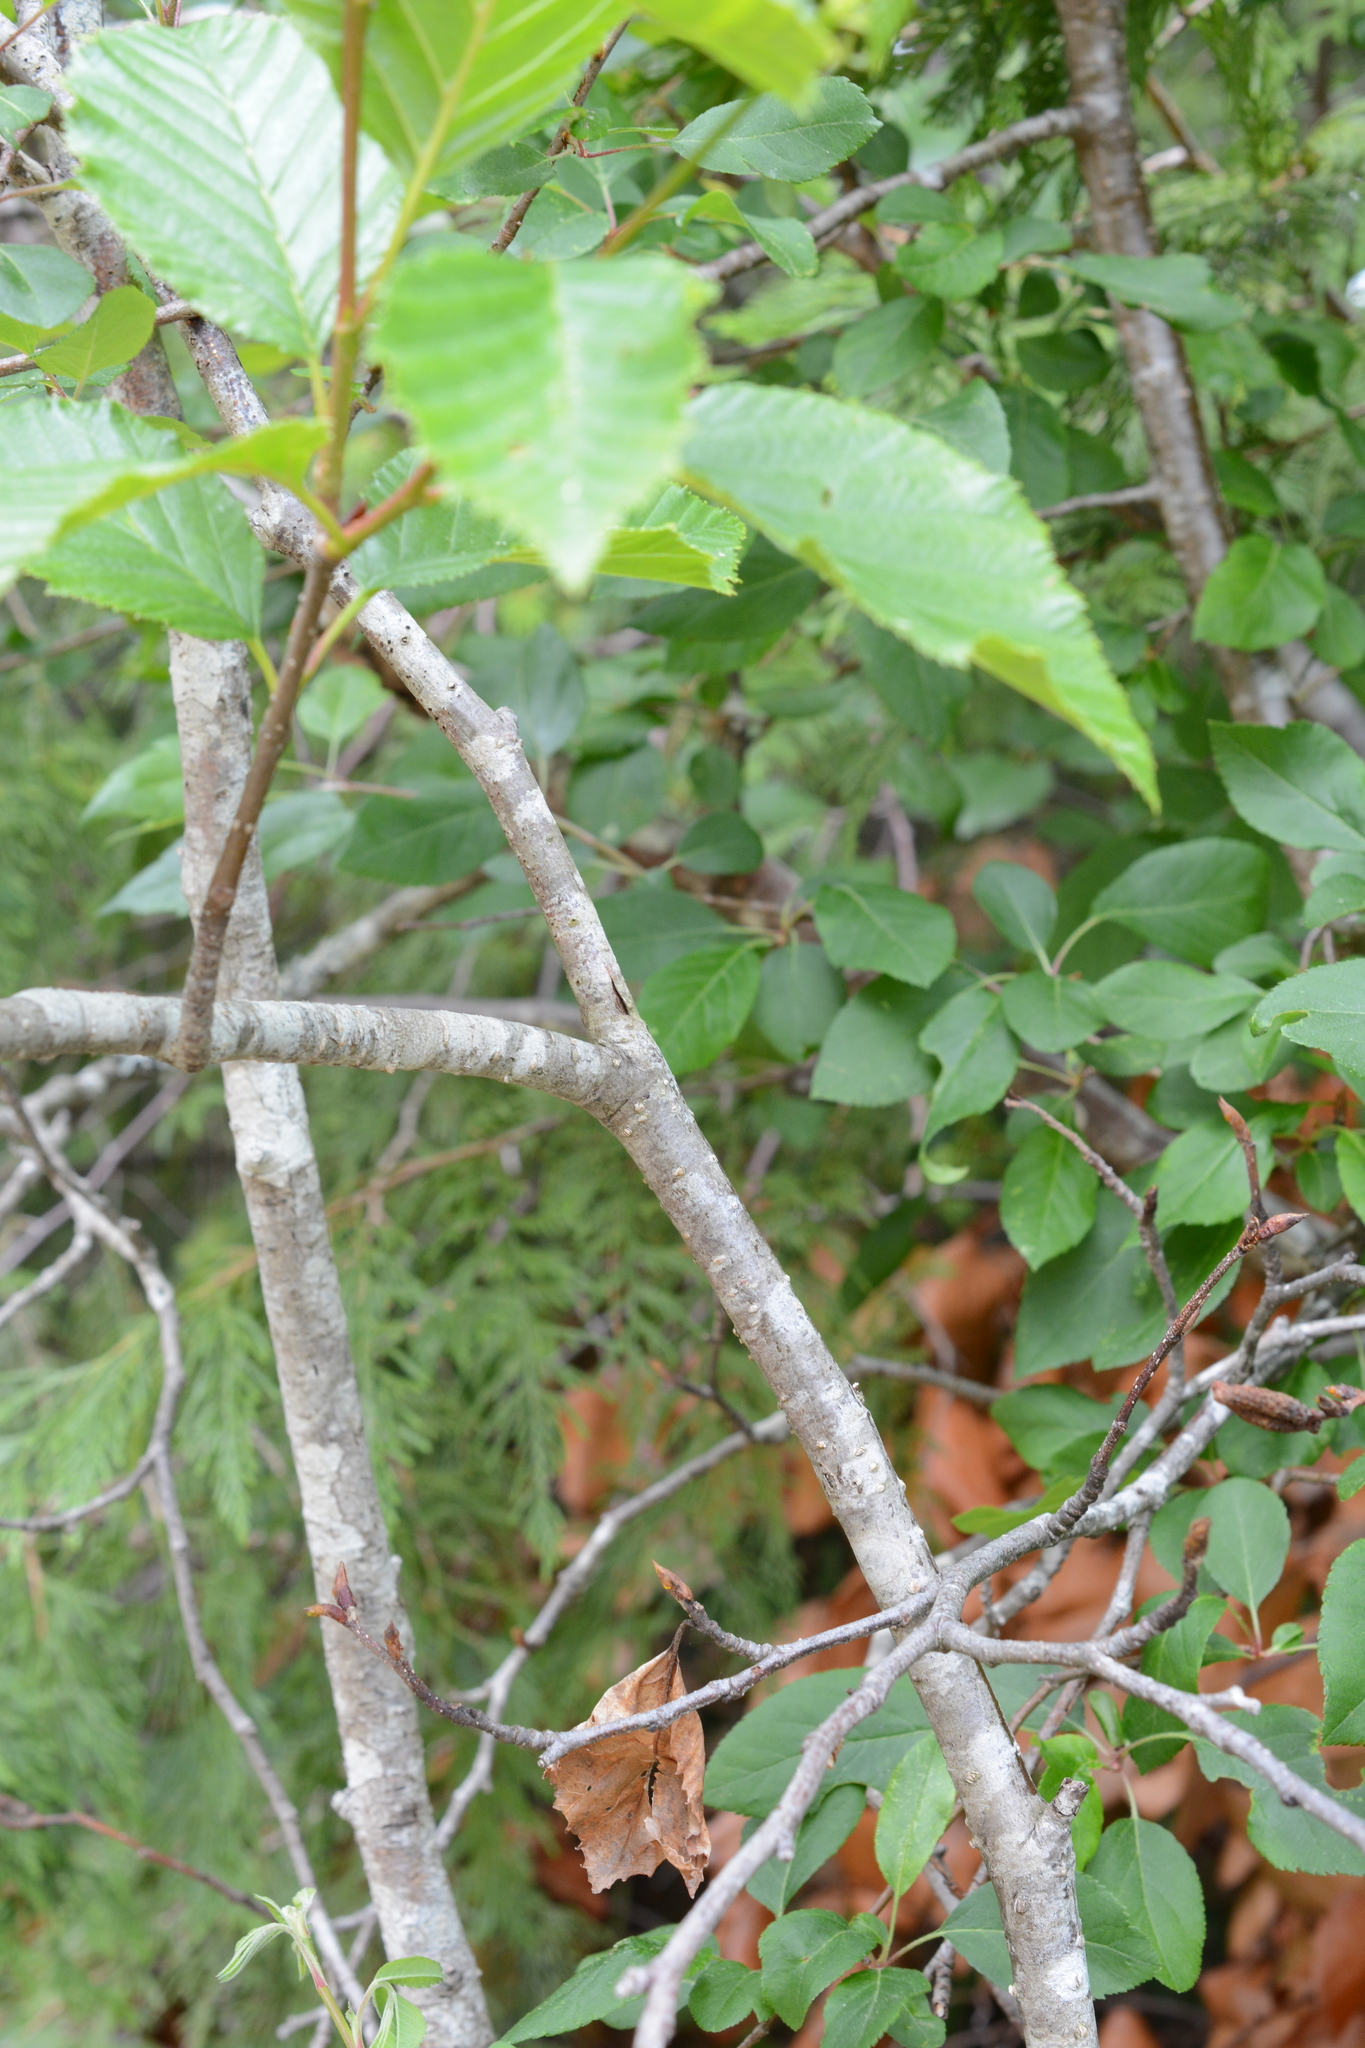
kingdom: Plantae
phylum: Tracheophyta
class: Magnoliopsida
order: Fagales
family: Betulaceae
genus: Alnus
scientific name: Alnus alnobetula
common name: Green alder
